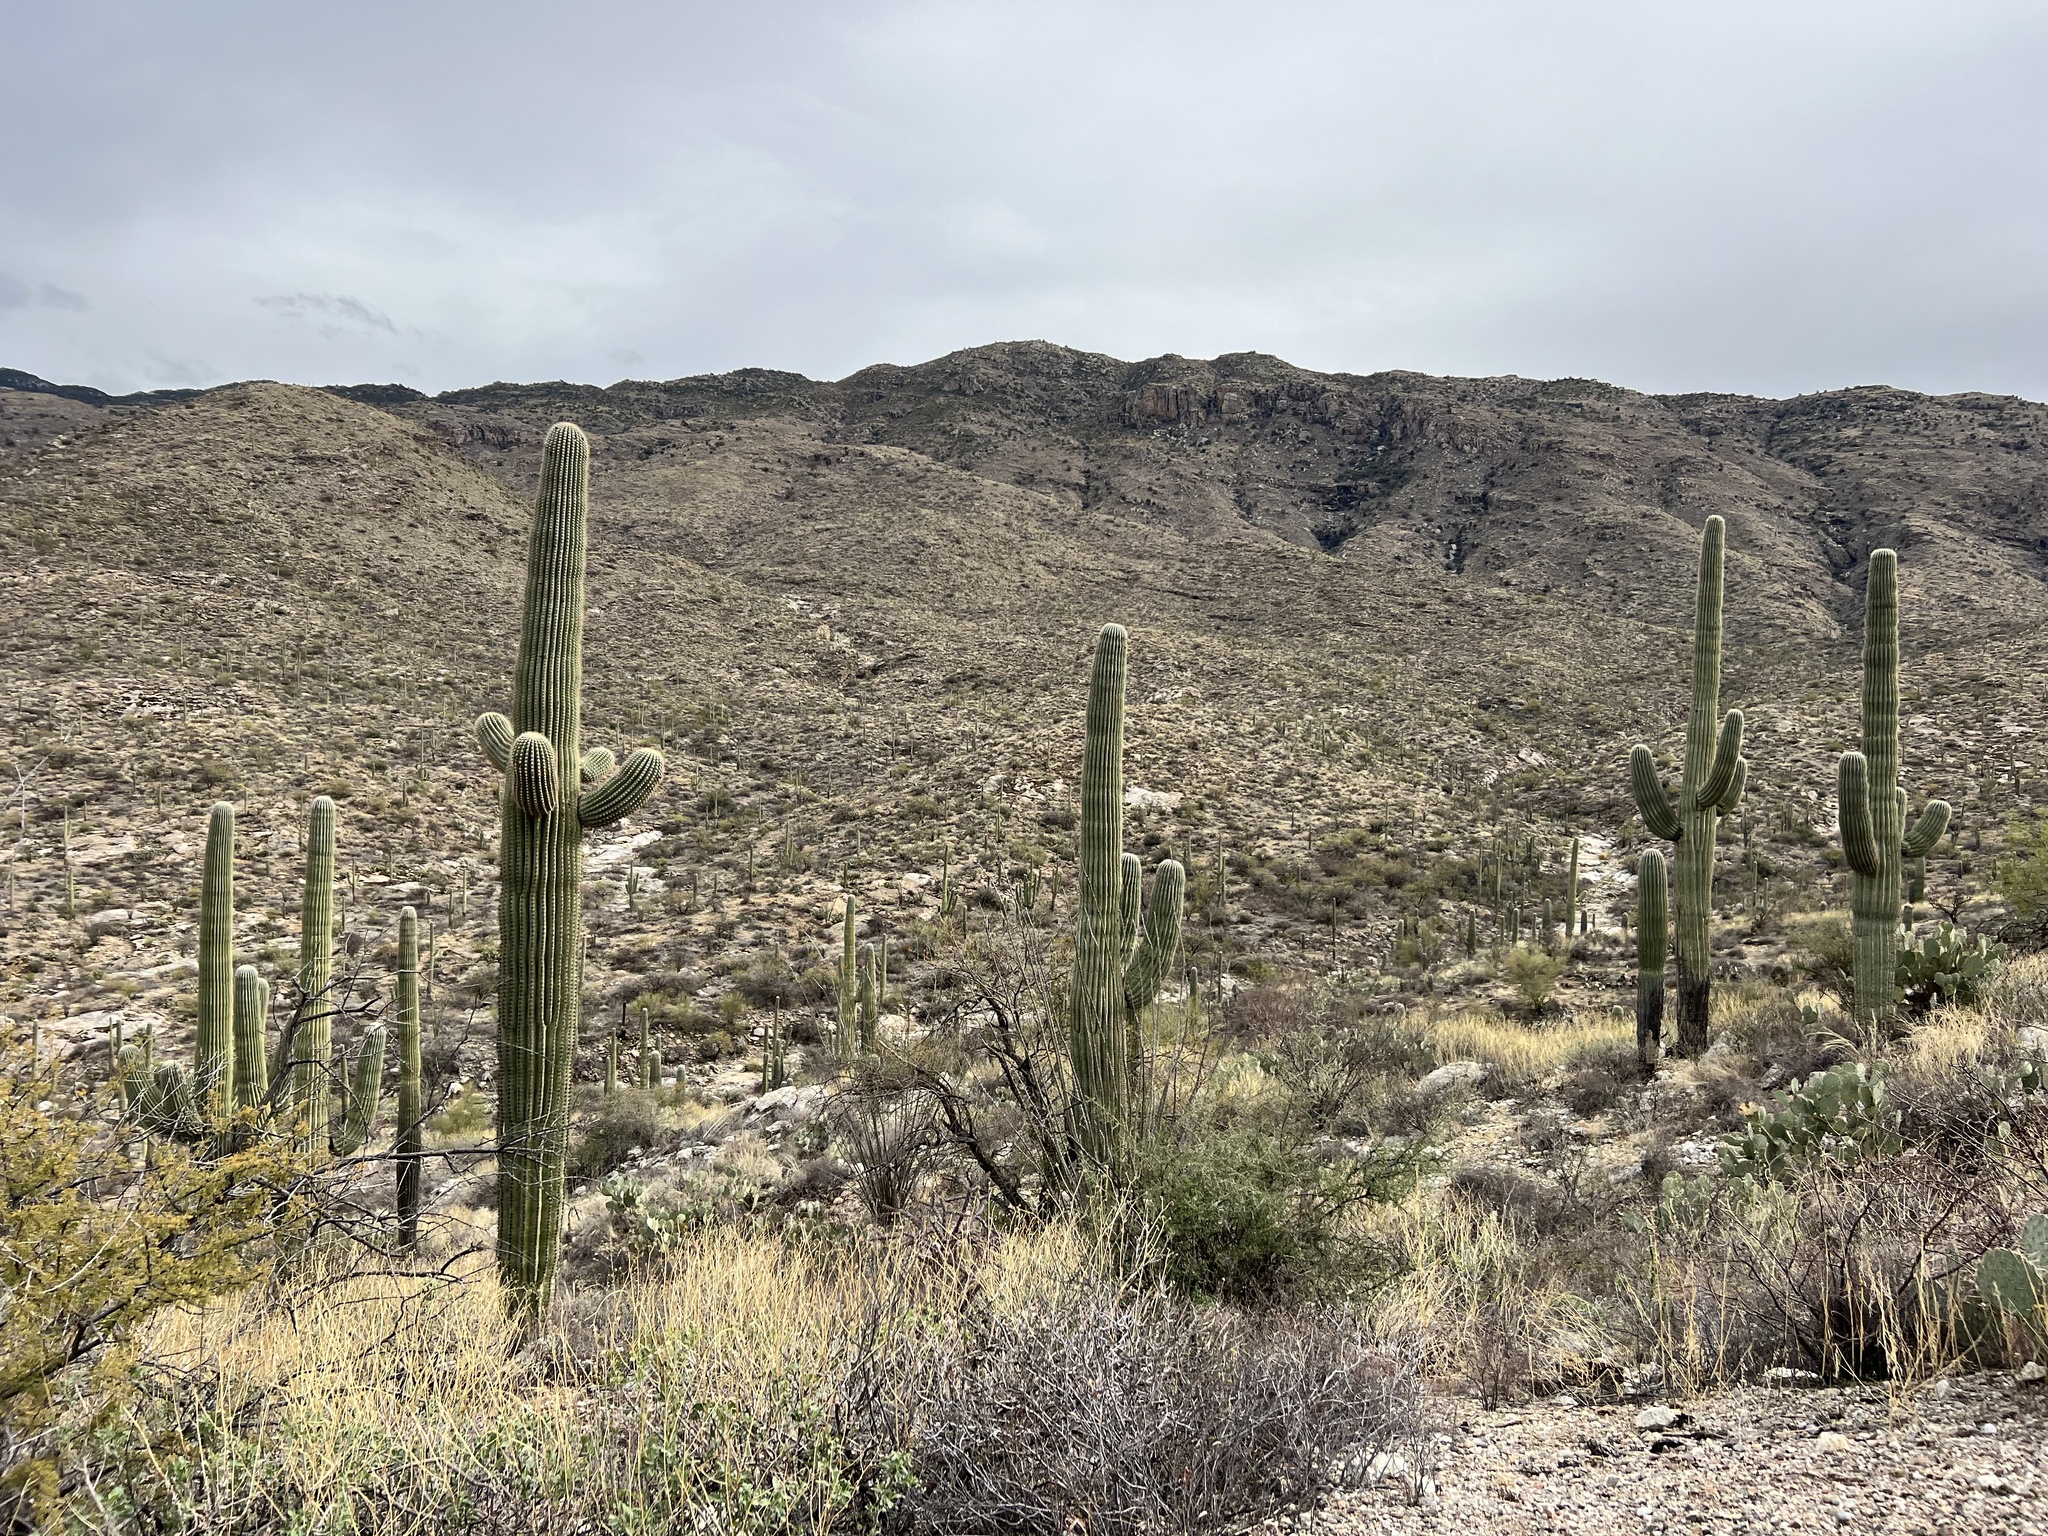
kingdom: Plantae
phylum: Tracheophyta
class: Magnoliopsida
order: Caryophyllales
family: Cactaceae
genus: Carnegiea
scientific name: Carnegiea gigantea
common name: Saguaro
